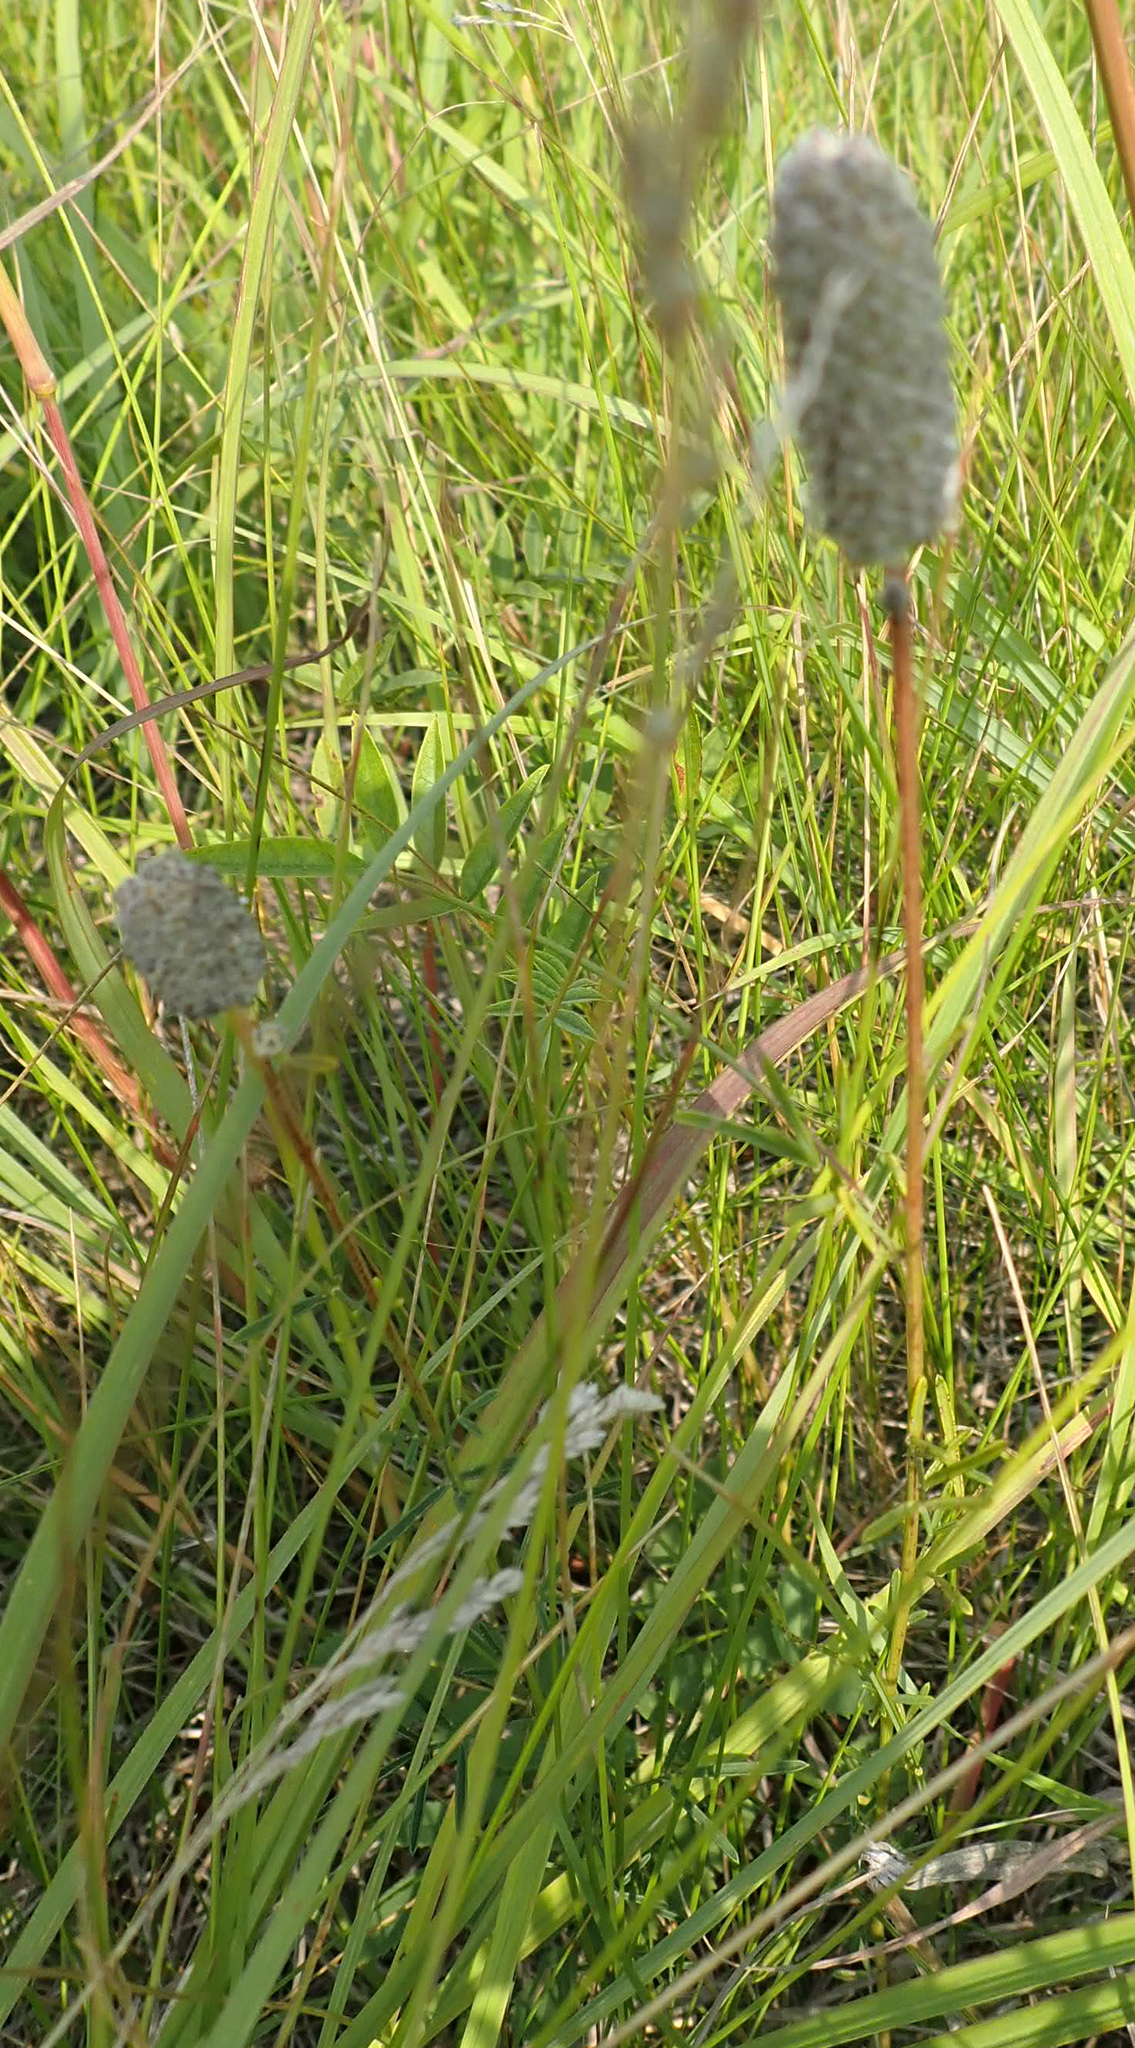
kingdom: Plantae
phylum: Tracheophyta
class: Magnoliopsida
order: Fabales
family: Fabaceae
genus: Dalea
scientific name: Dalea purpurea
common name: Purple prairie-clover
